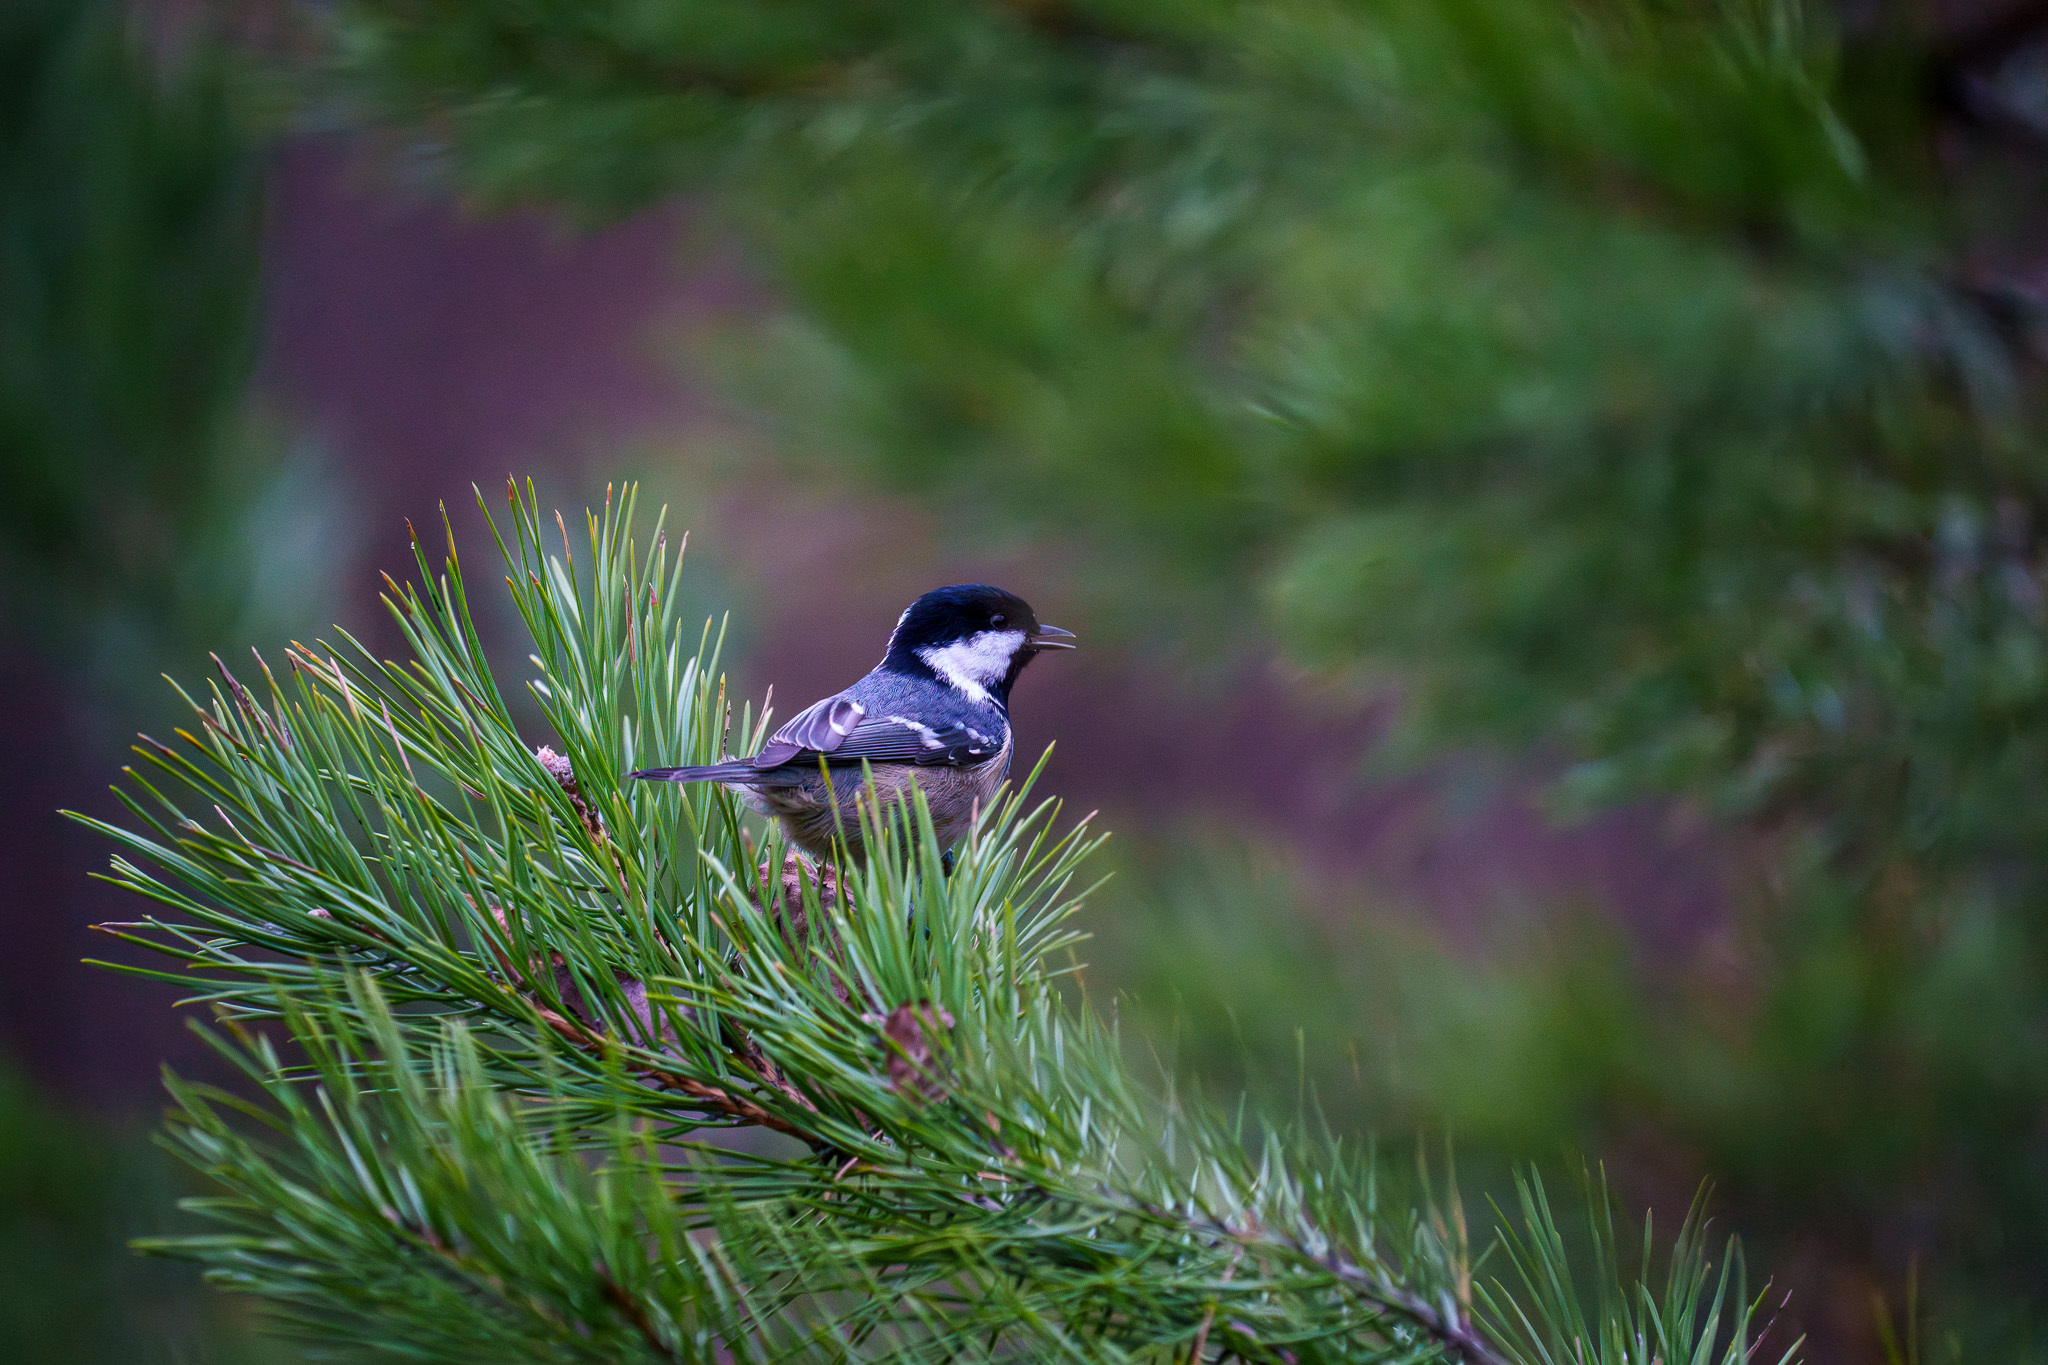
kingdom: Animalia
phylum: Chordata
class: Aves
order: Passeriformes
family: Paridae
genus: Periparus
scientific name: Periparus ater
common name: Coal tit
